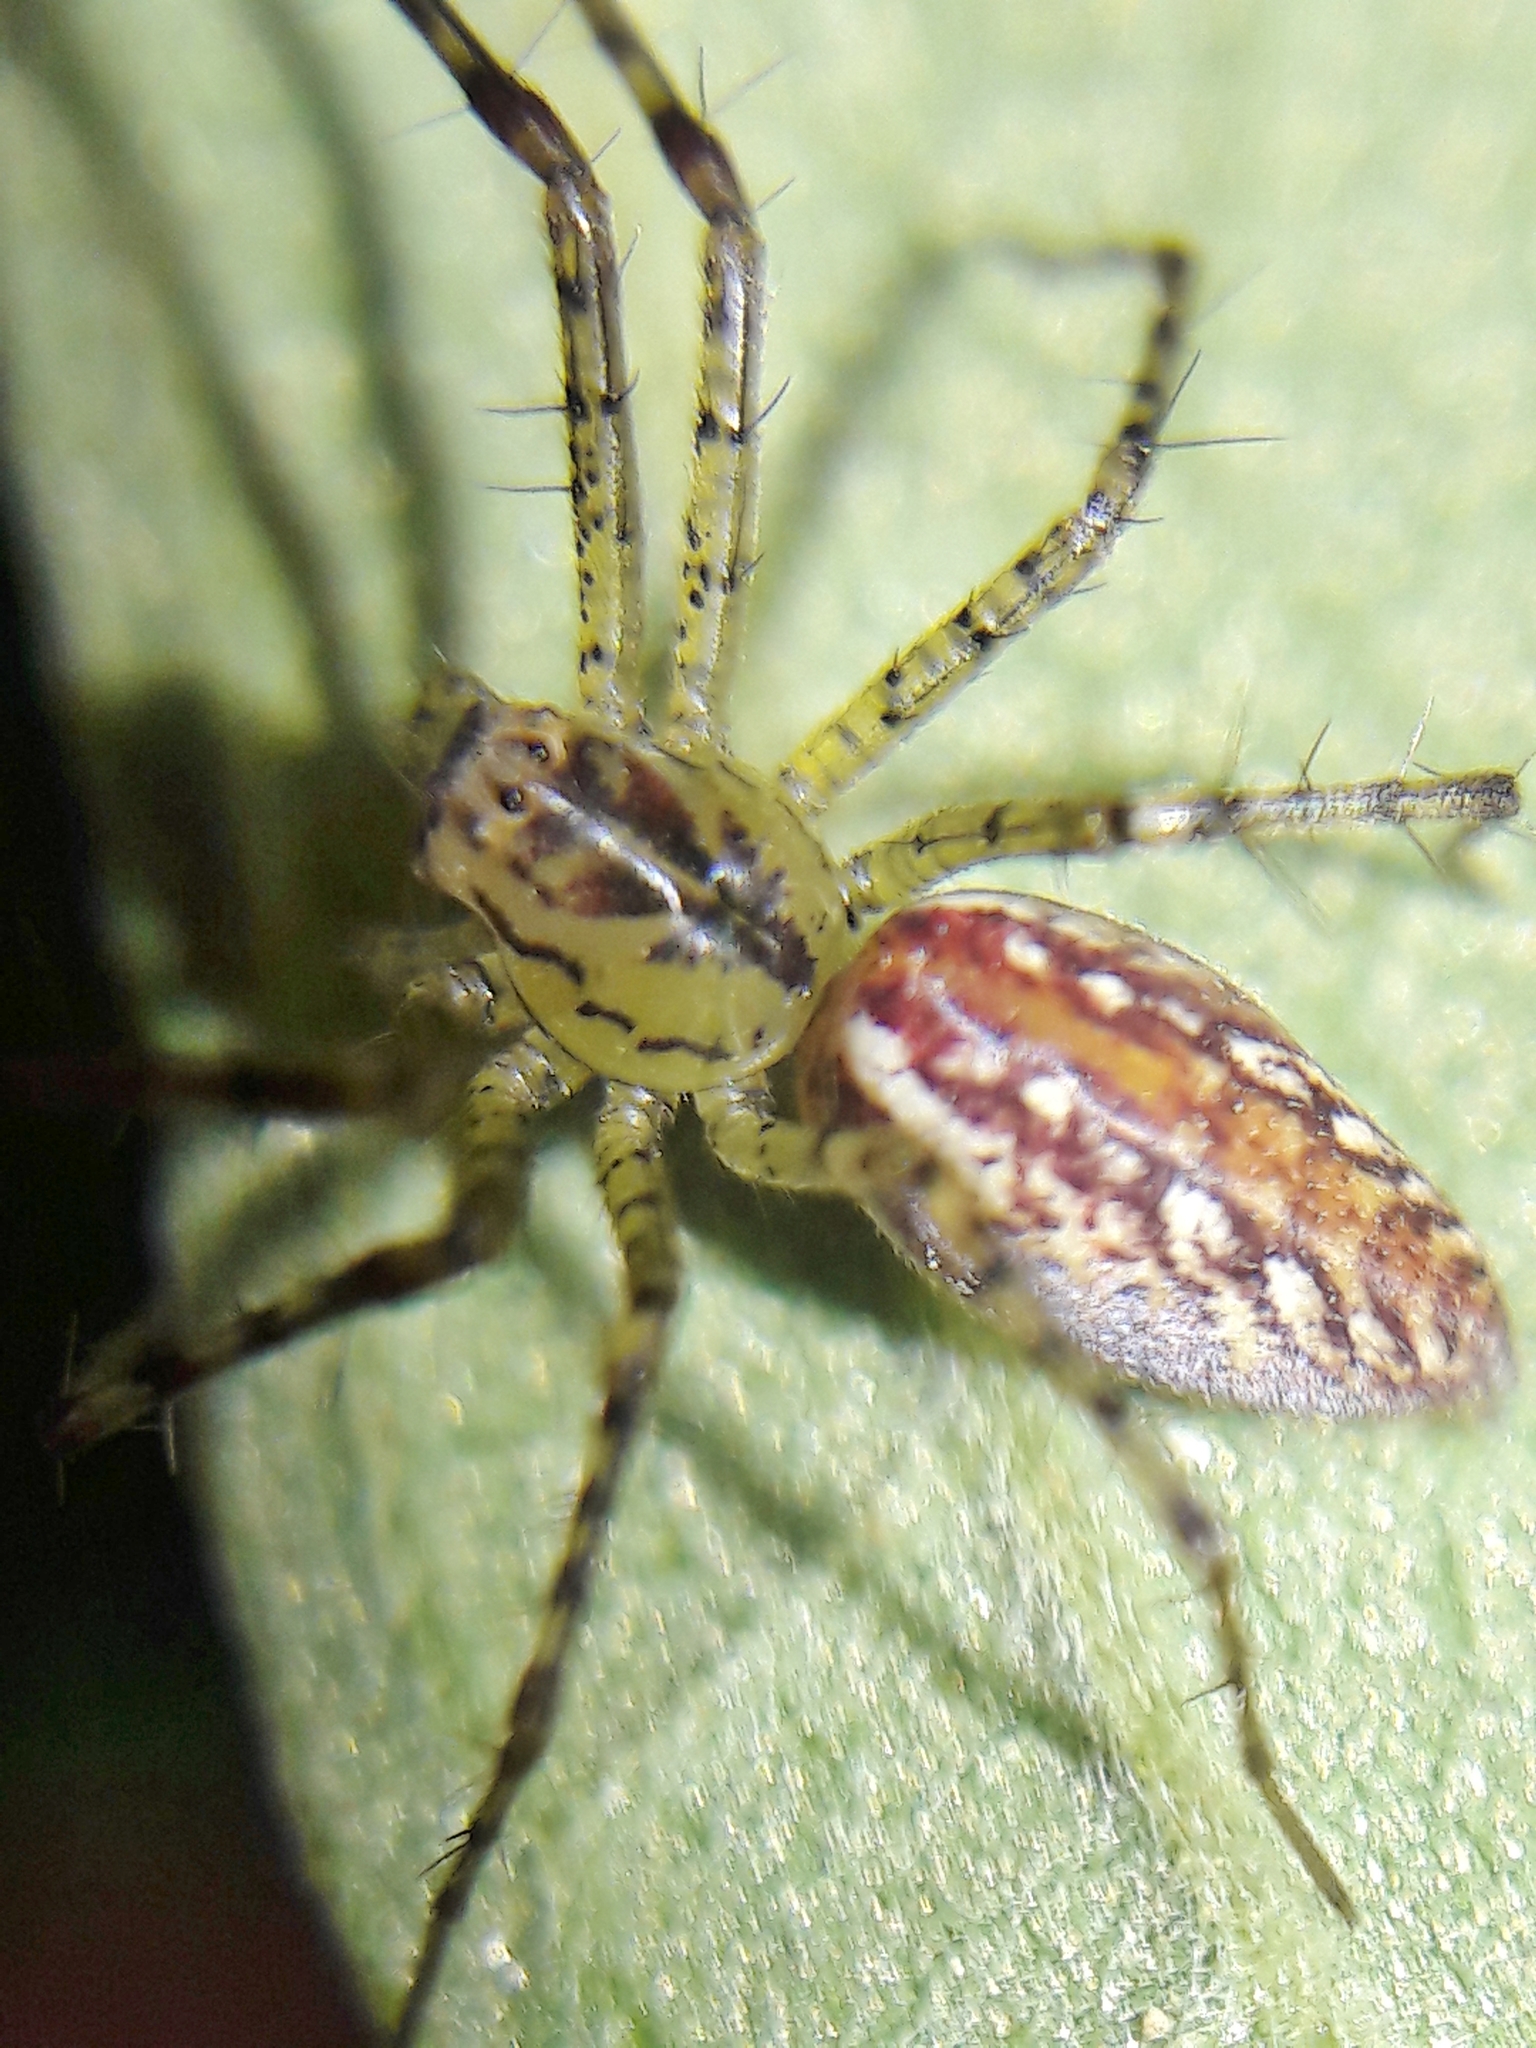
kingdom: Animalia
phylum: Arthropoda
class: Arachnida
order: Araneae
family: Oxyopidae
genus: Peucetia
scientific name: Peucetia flava
